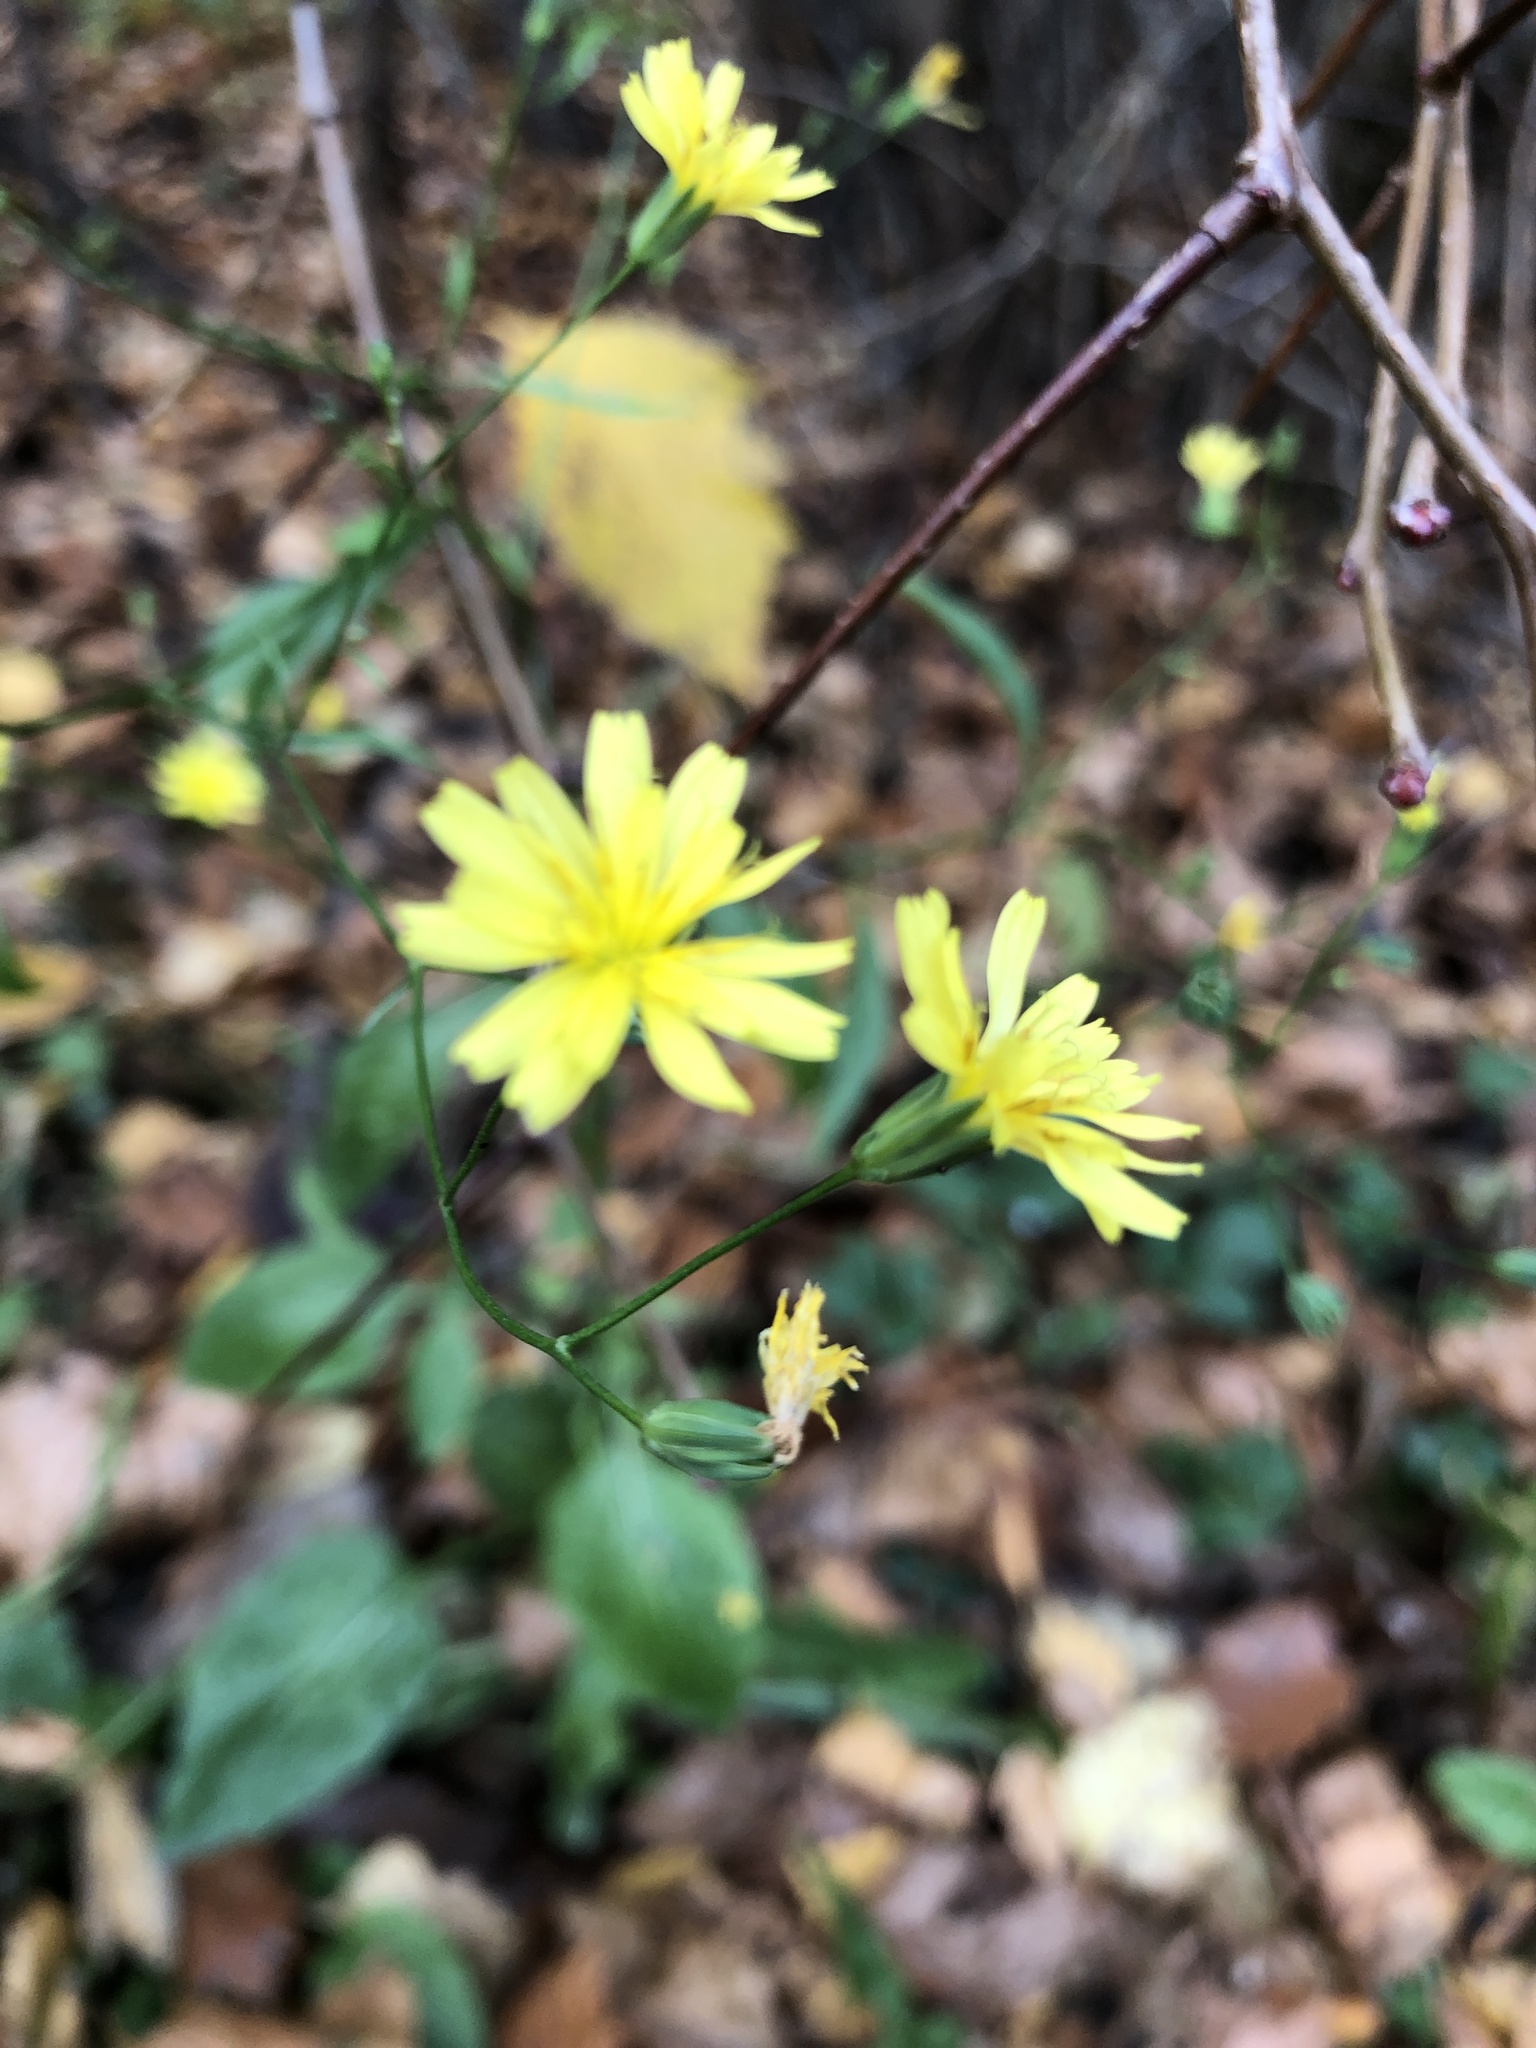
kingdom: Plantae
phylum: Tracheophyta
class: Magnoliopsida
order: Asterales
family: Asteraceae
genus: Lapsana
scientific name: Lapsana communis
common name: Nipplewort
